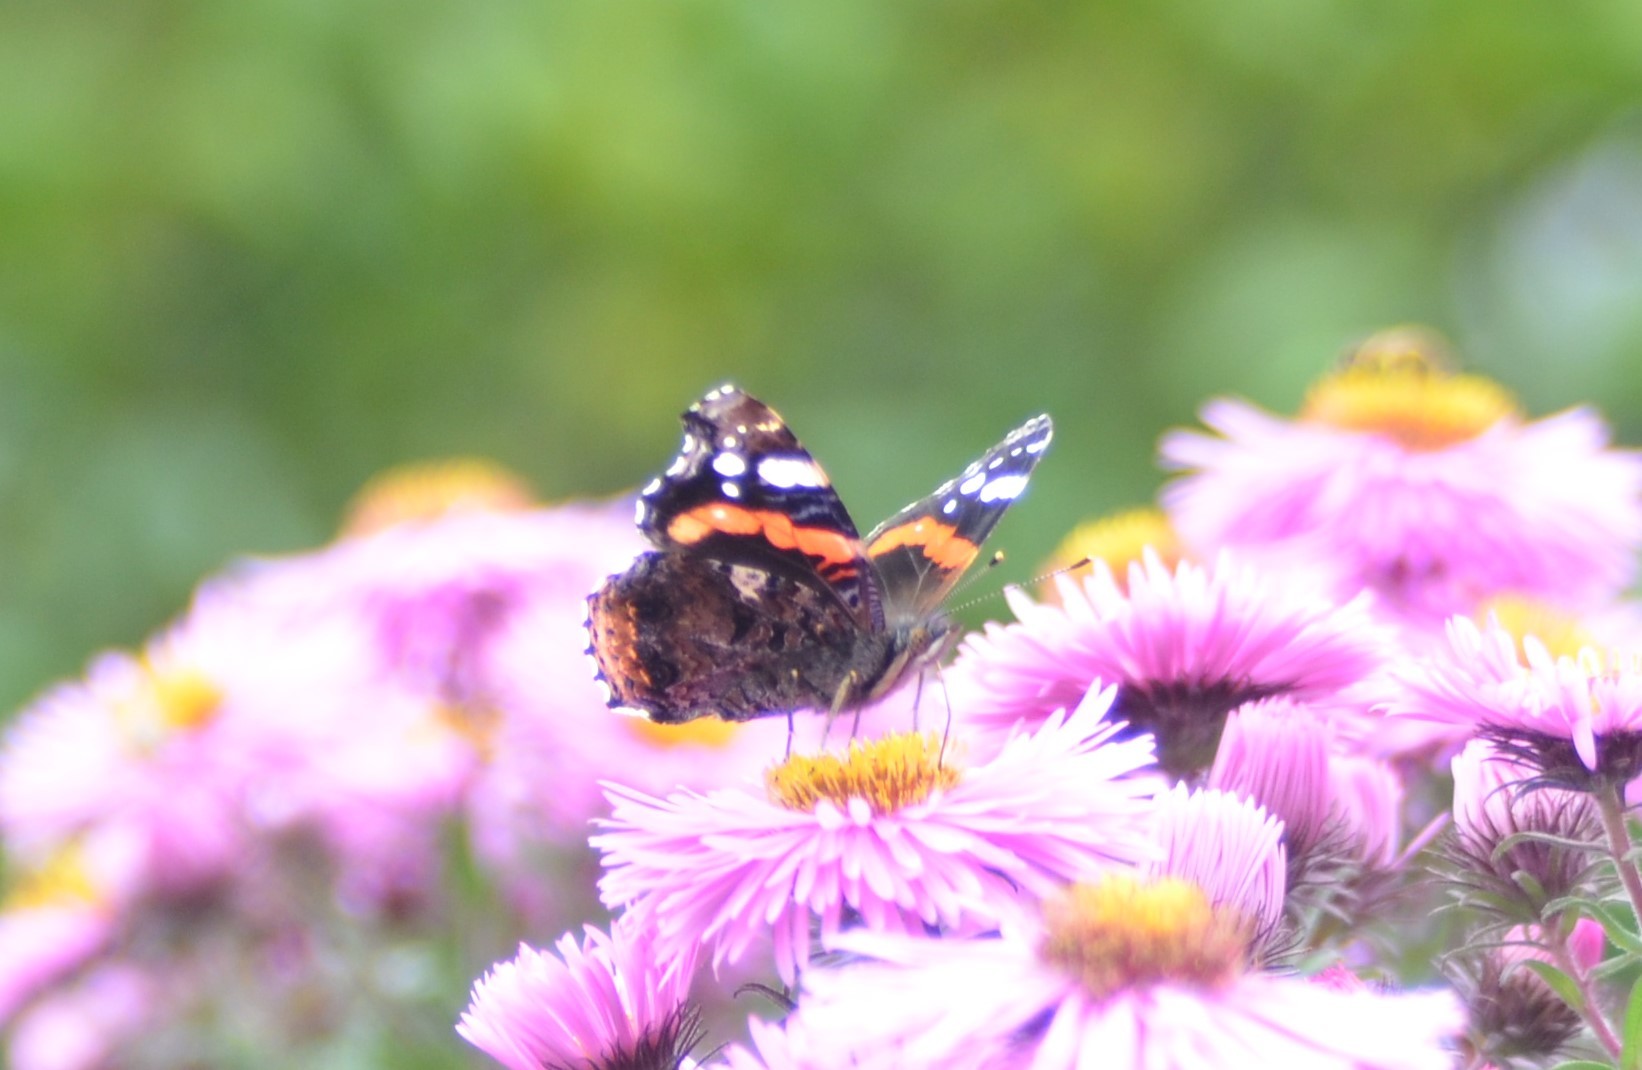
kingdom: Animalia
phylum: Arthropoda
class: Insecta
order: Lepidoptera
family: Nymphalidae
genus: Vanessa
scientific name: Vanessa atalanta
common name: Red admiral
